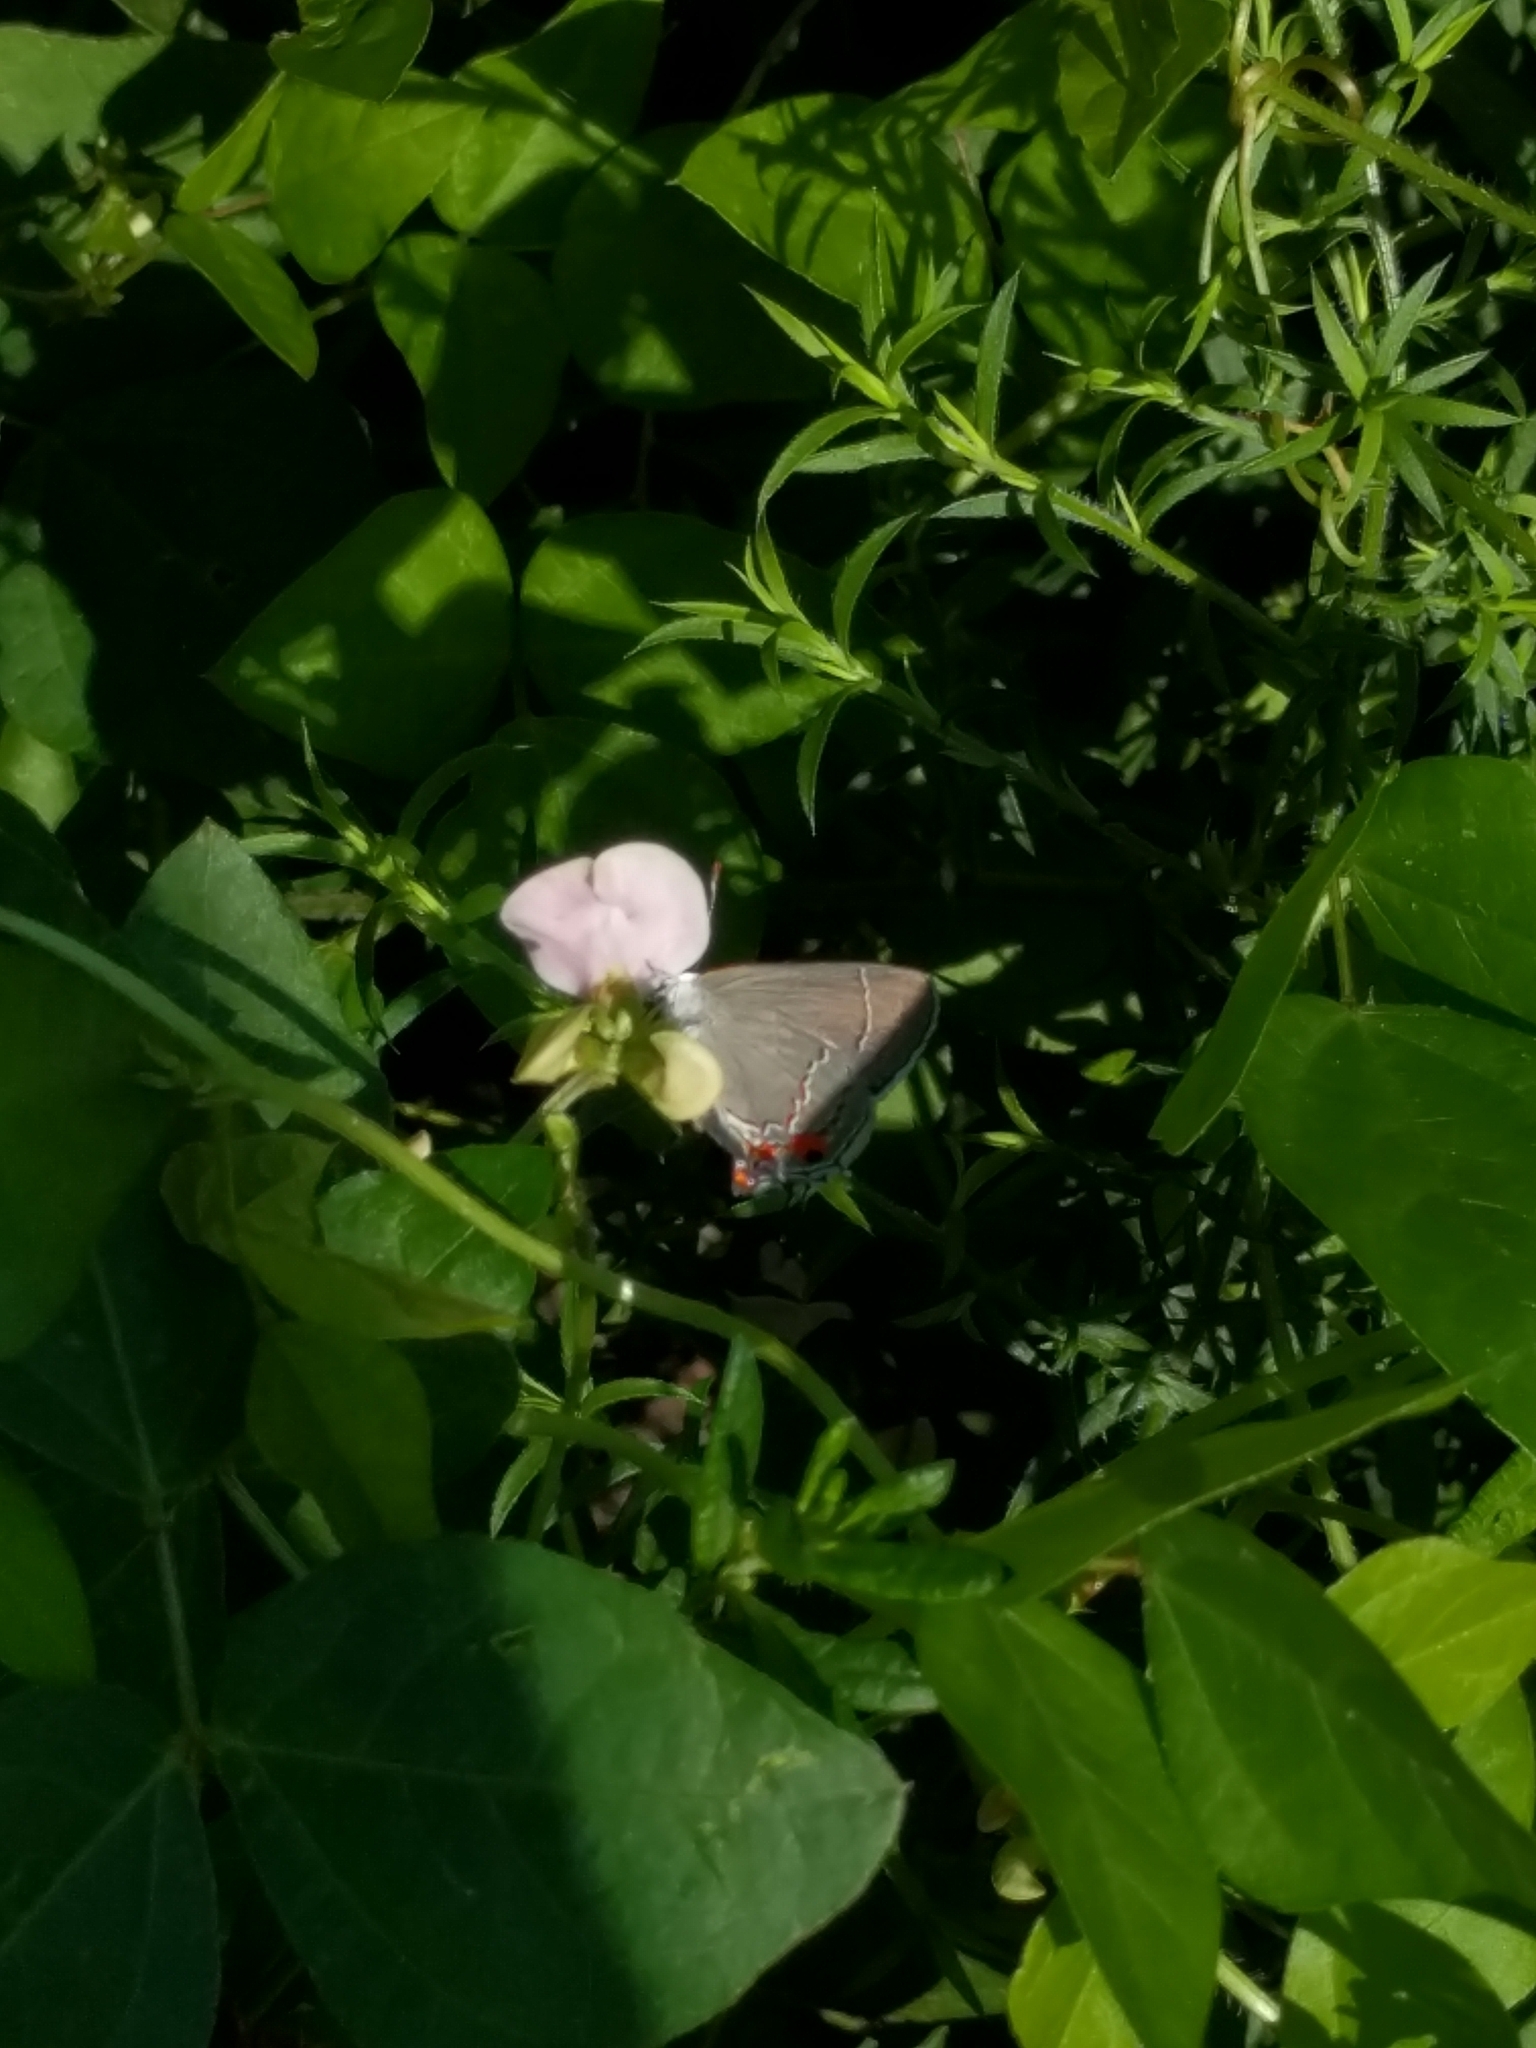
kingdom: Animalia
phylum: Arthropoda
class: Insecta
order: Lepidoptera
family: Lycaenidae
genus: Strymon
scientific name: Strymon melinus
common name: Gray hairstreak
